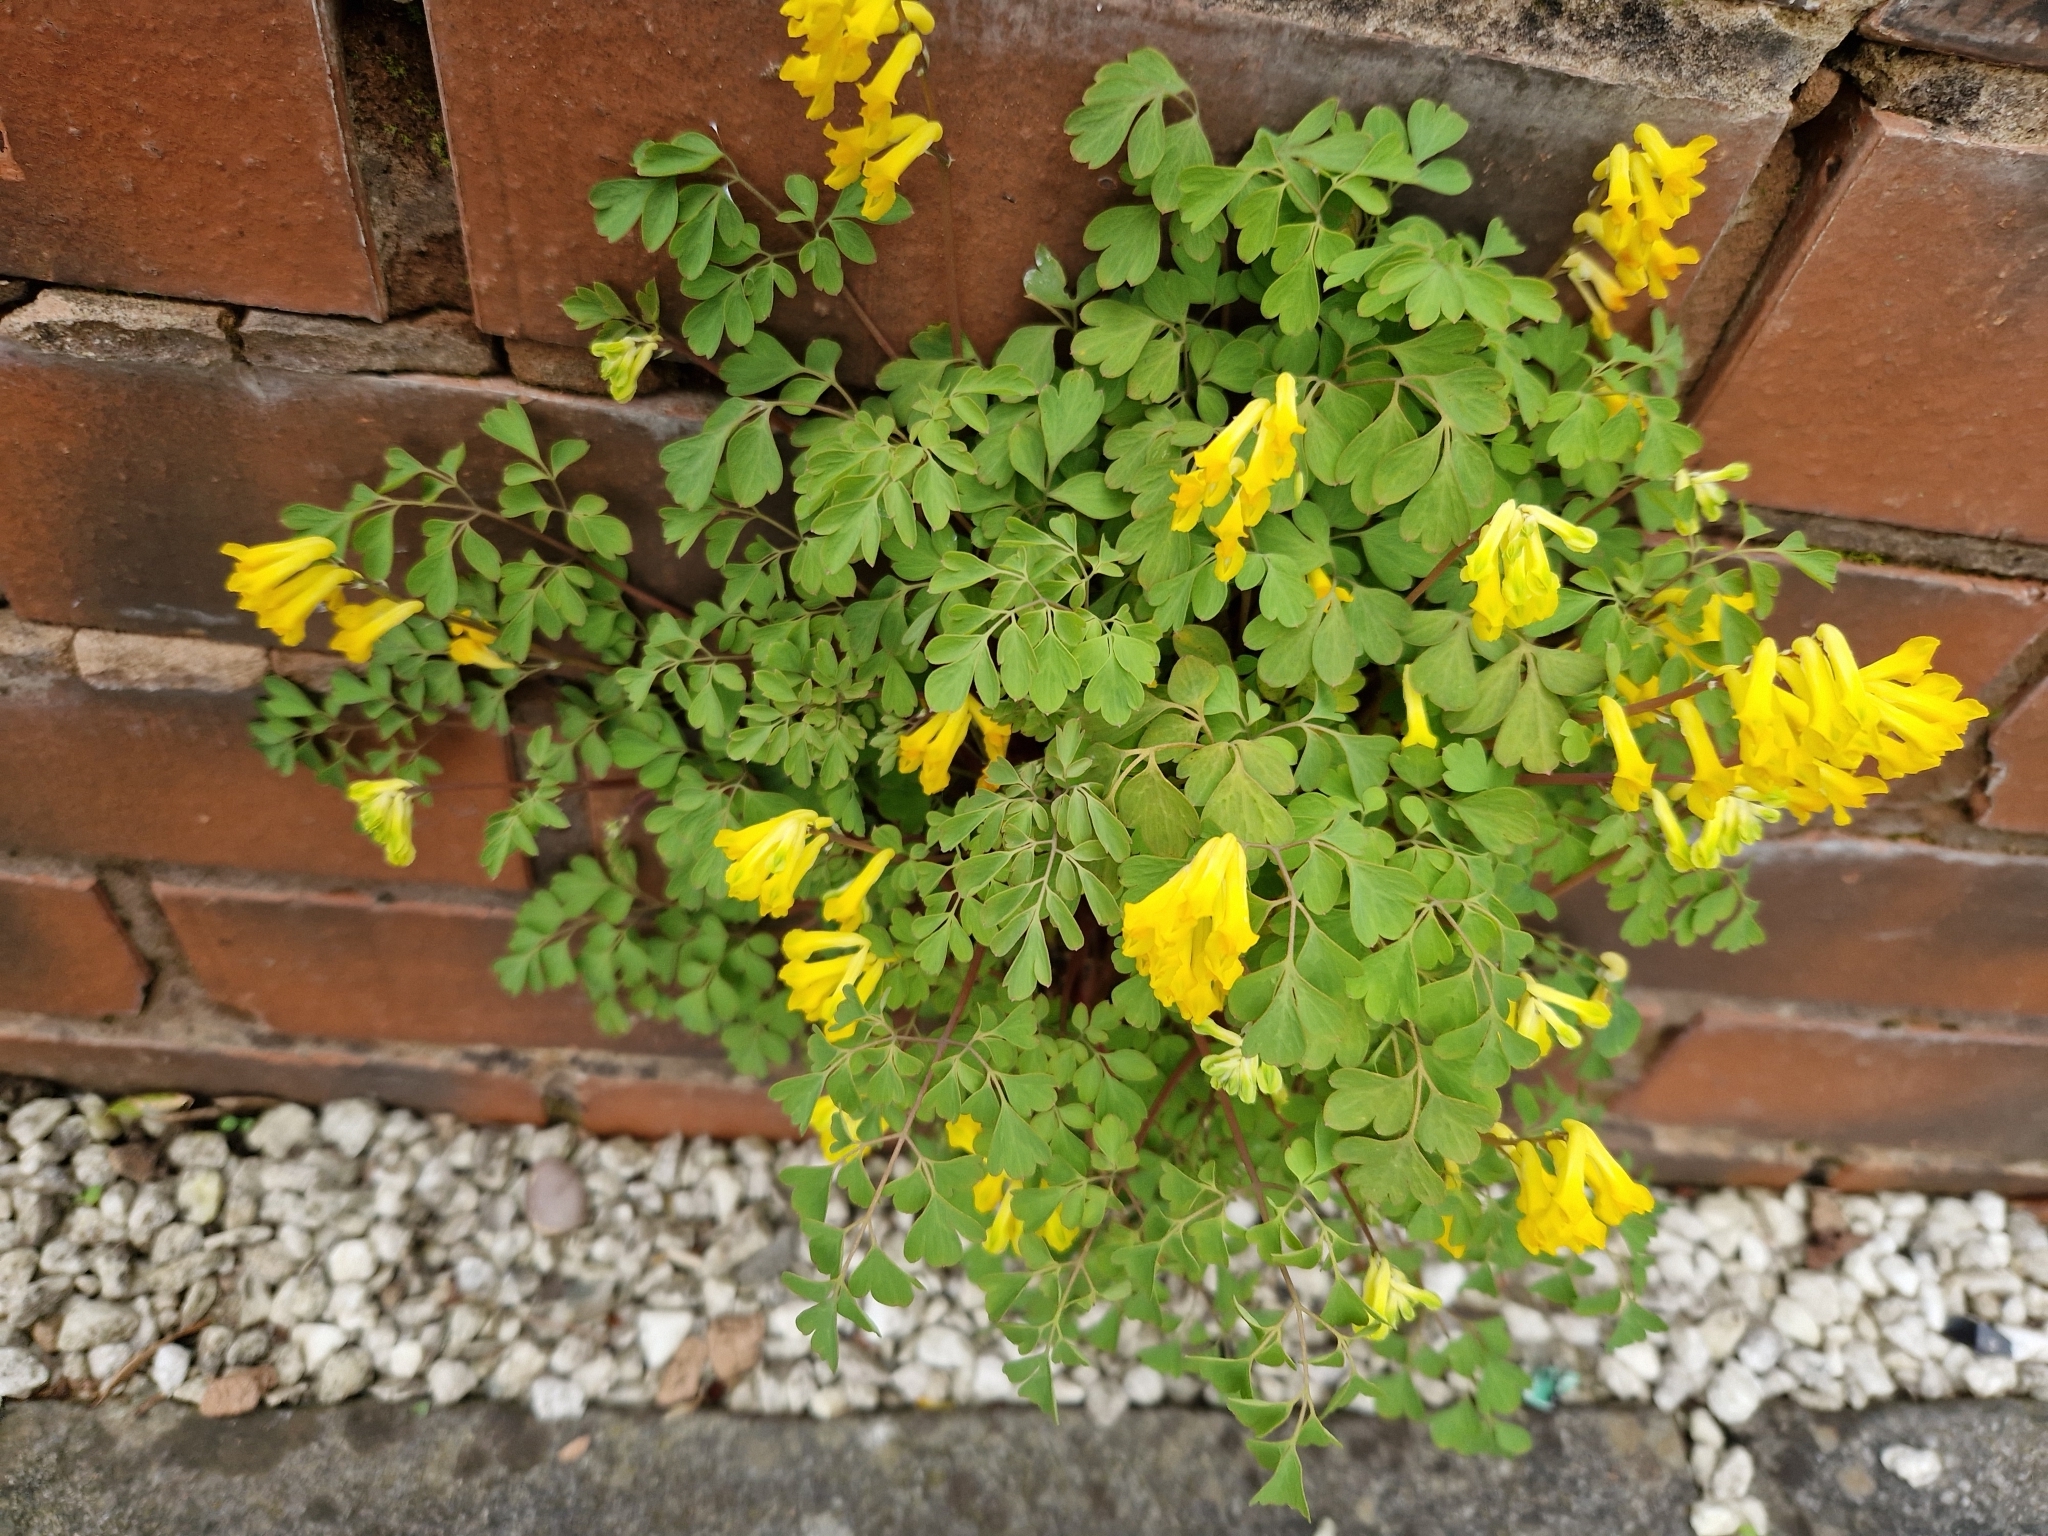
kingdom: Plantae
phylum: Tracheophyta
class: Magnoliopsida
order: Ranunculales
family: Papaveraceae
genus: Pseudofumaria
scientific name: Pseudofumaria lutea
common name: Yellow corydalis
